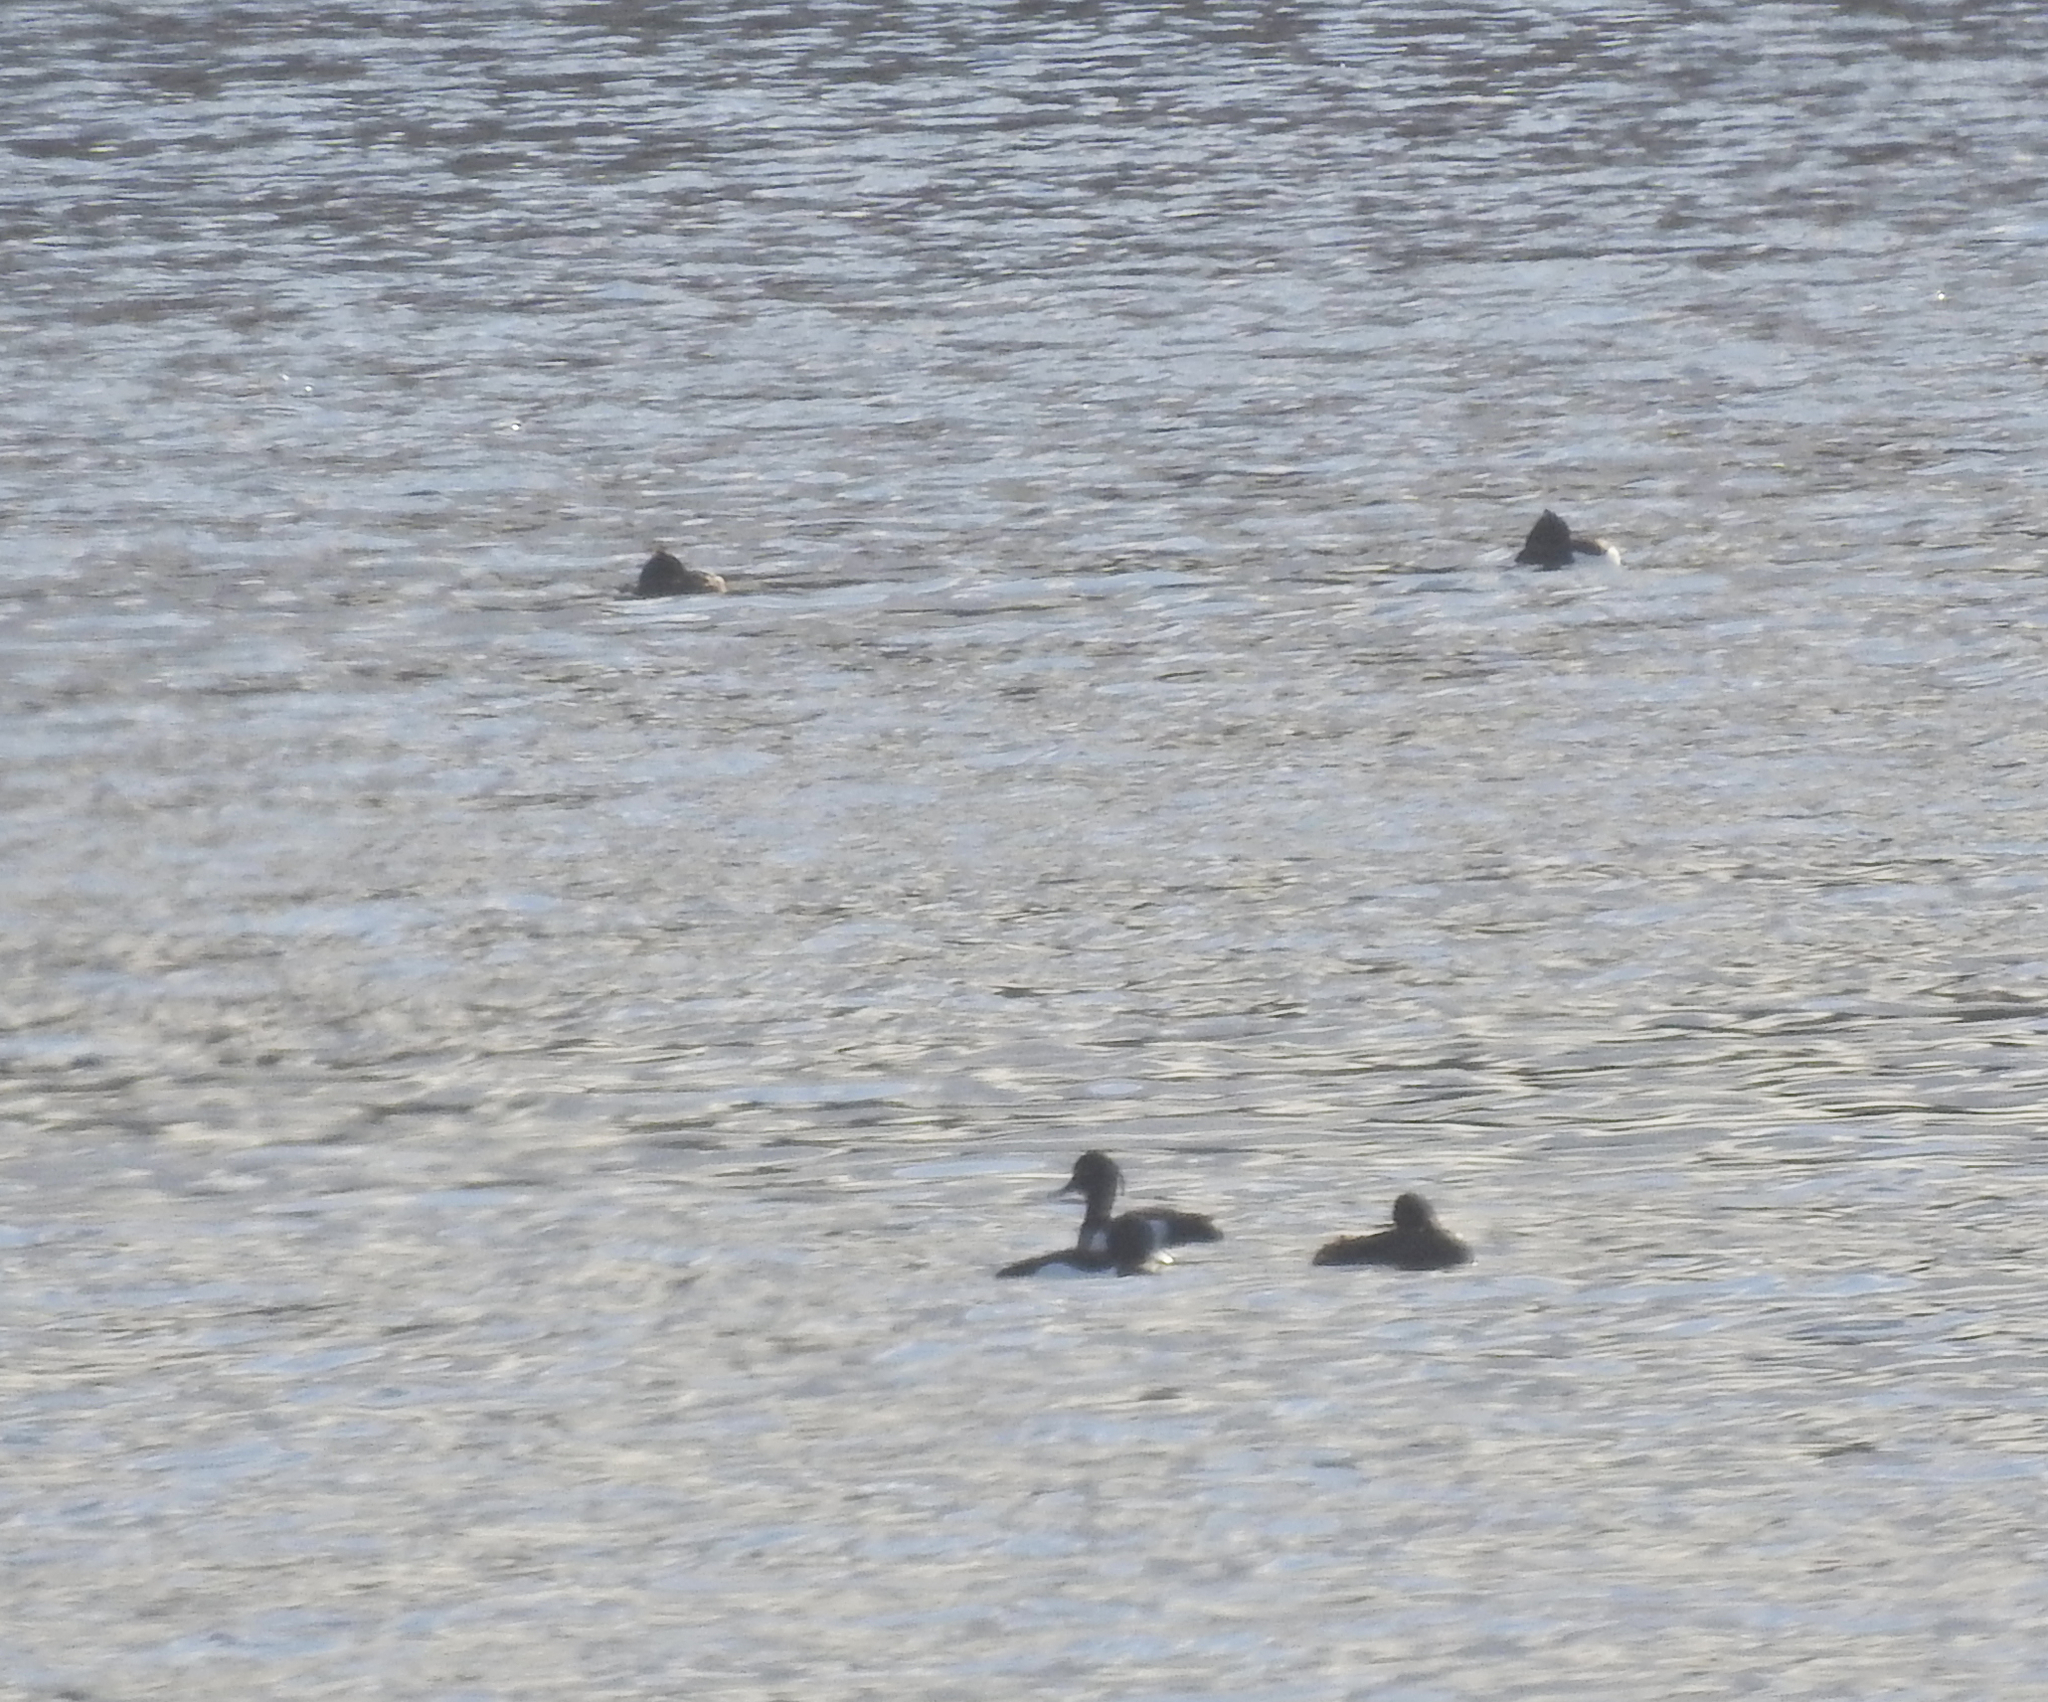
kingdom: Animalia
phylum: Chordata
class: Aves
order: Anseriformes
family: Anatidae
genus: Aythya
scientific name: Aythya fuligula
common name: Tufted duck
